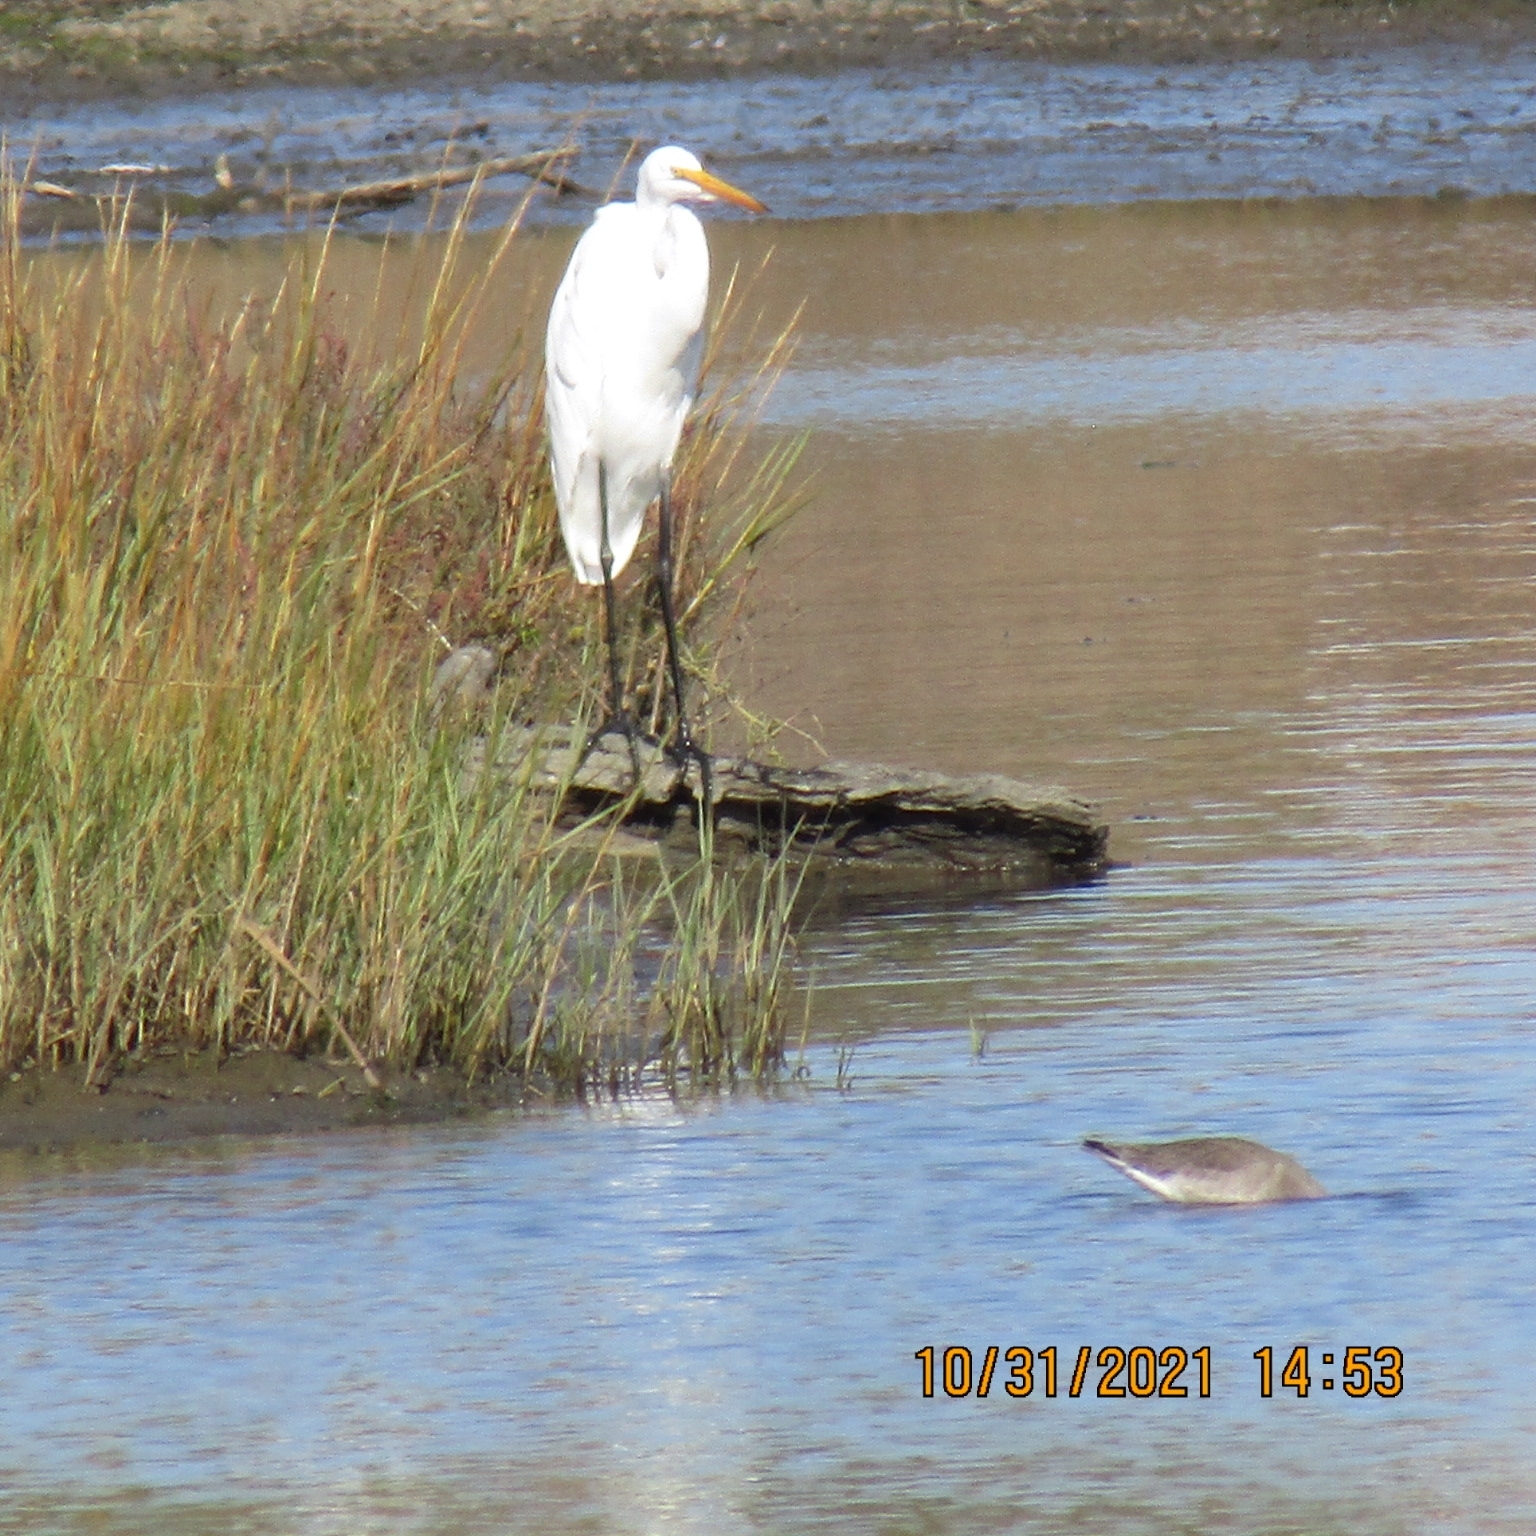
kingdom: Animalia
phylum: Chordata
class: Aves
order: Pelecaniformes
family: Ardeidae
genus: Ardea
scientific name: Ardea alba
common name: Great egret
